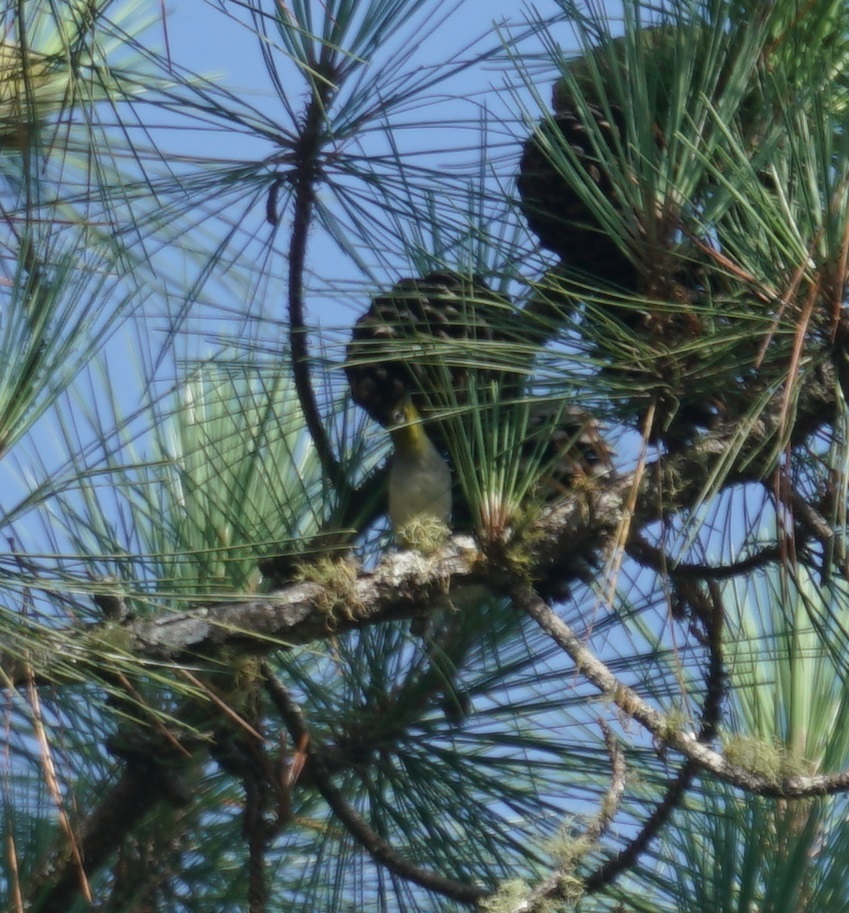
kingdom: Animalia
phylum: Chordata
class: Aves
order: Passeriformes
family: Zosteropidae
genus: Zosterops
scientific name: Zosterops lateralis
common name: Silvereye
